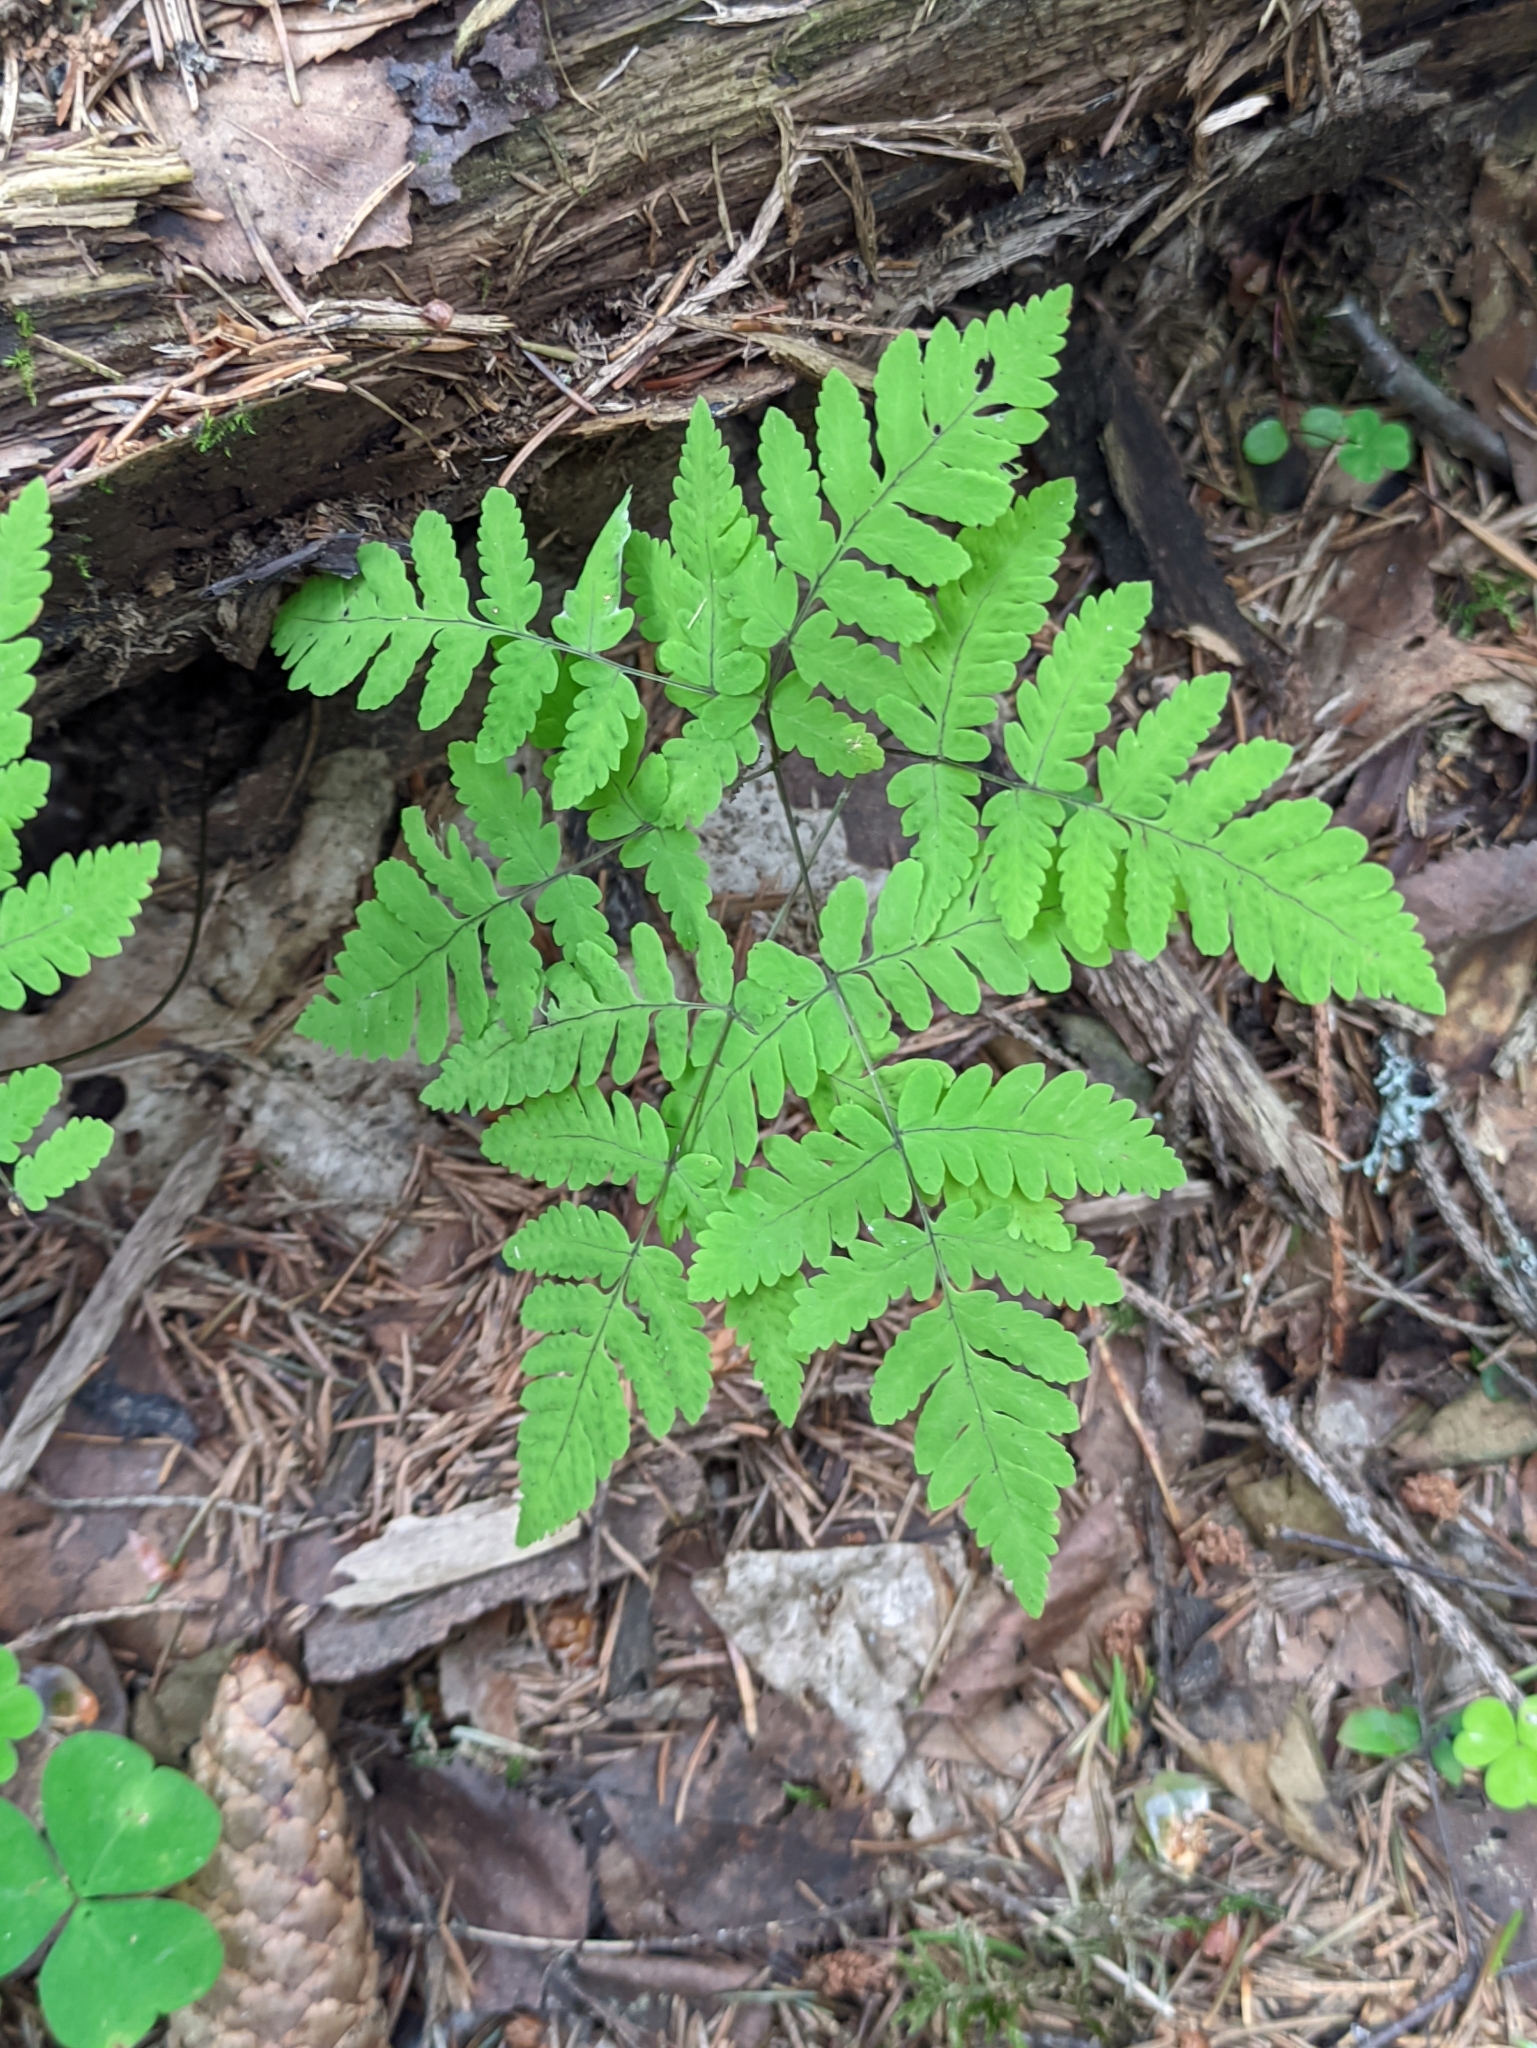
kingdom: Plantae
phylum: Tracheophyta
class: Polypodiopsida
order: Polypodiales
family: Cystopteridaceae
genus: Gymnocarpium
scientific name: Gymnocarpium dryopteris
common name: Oak fern
